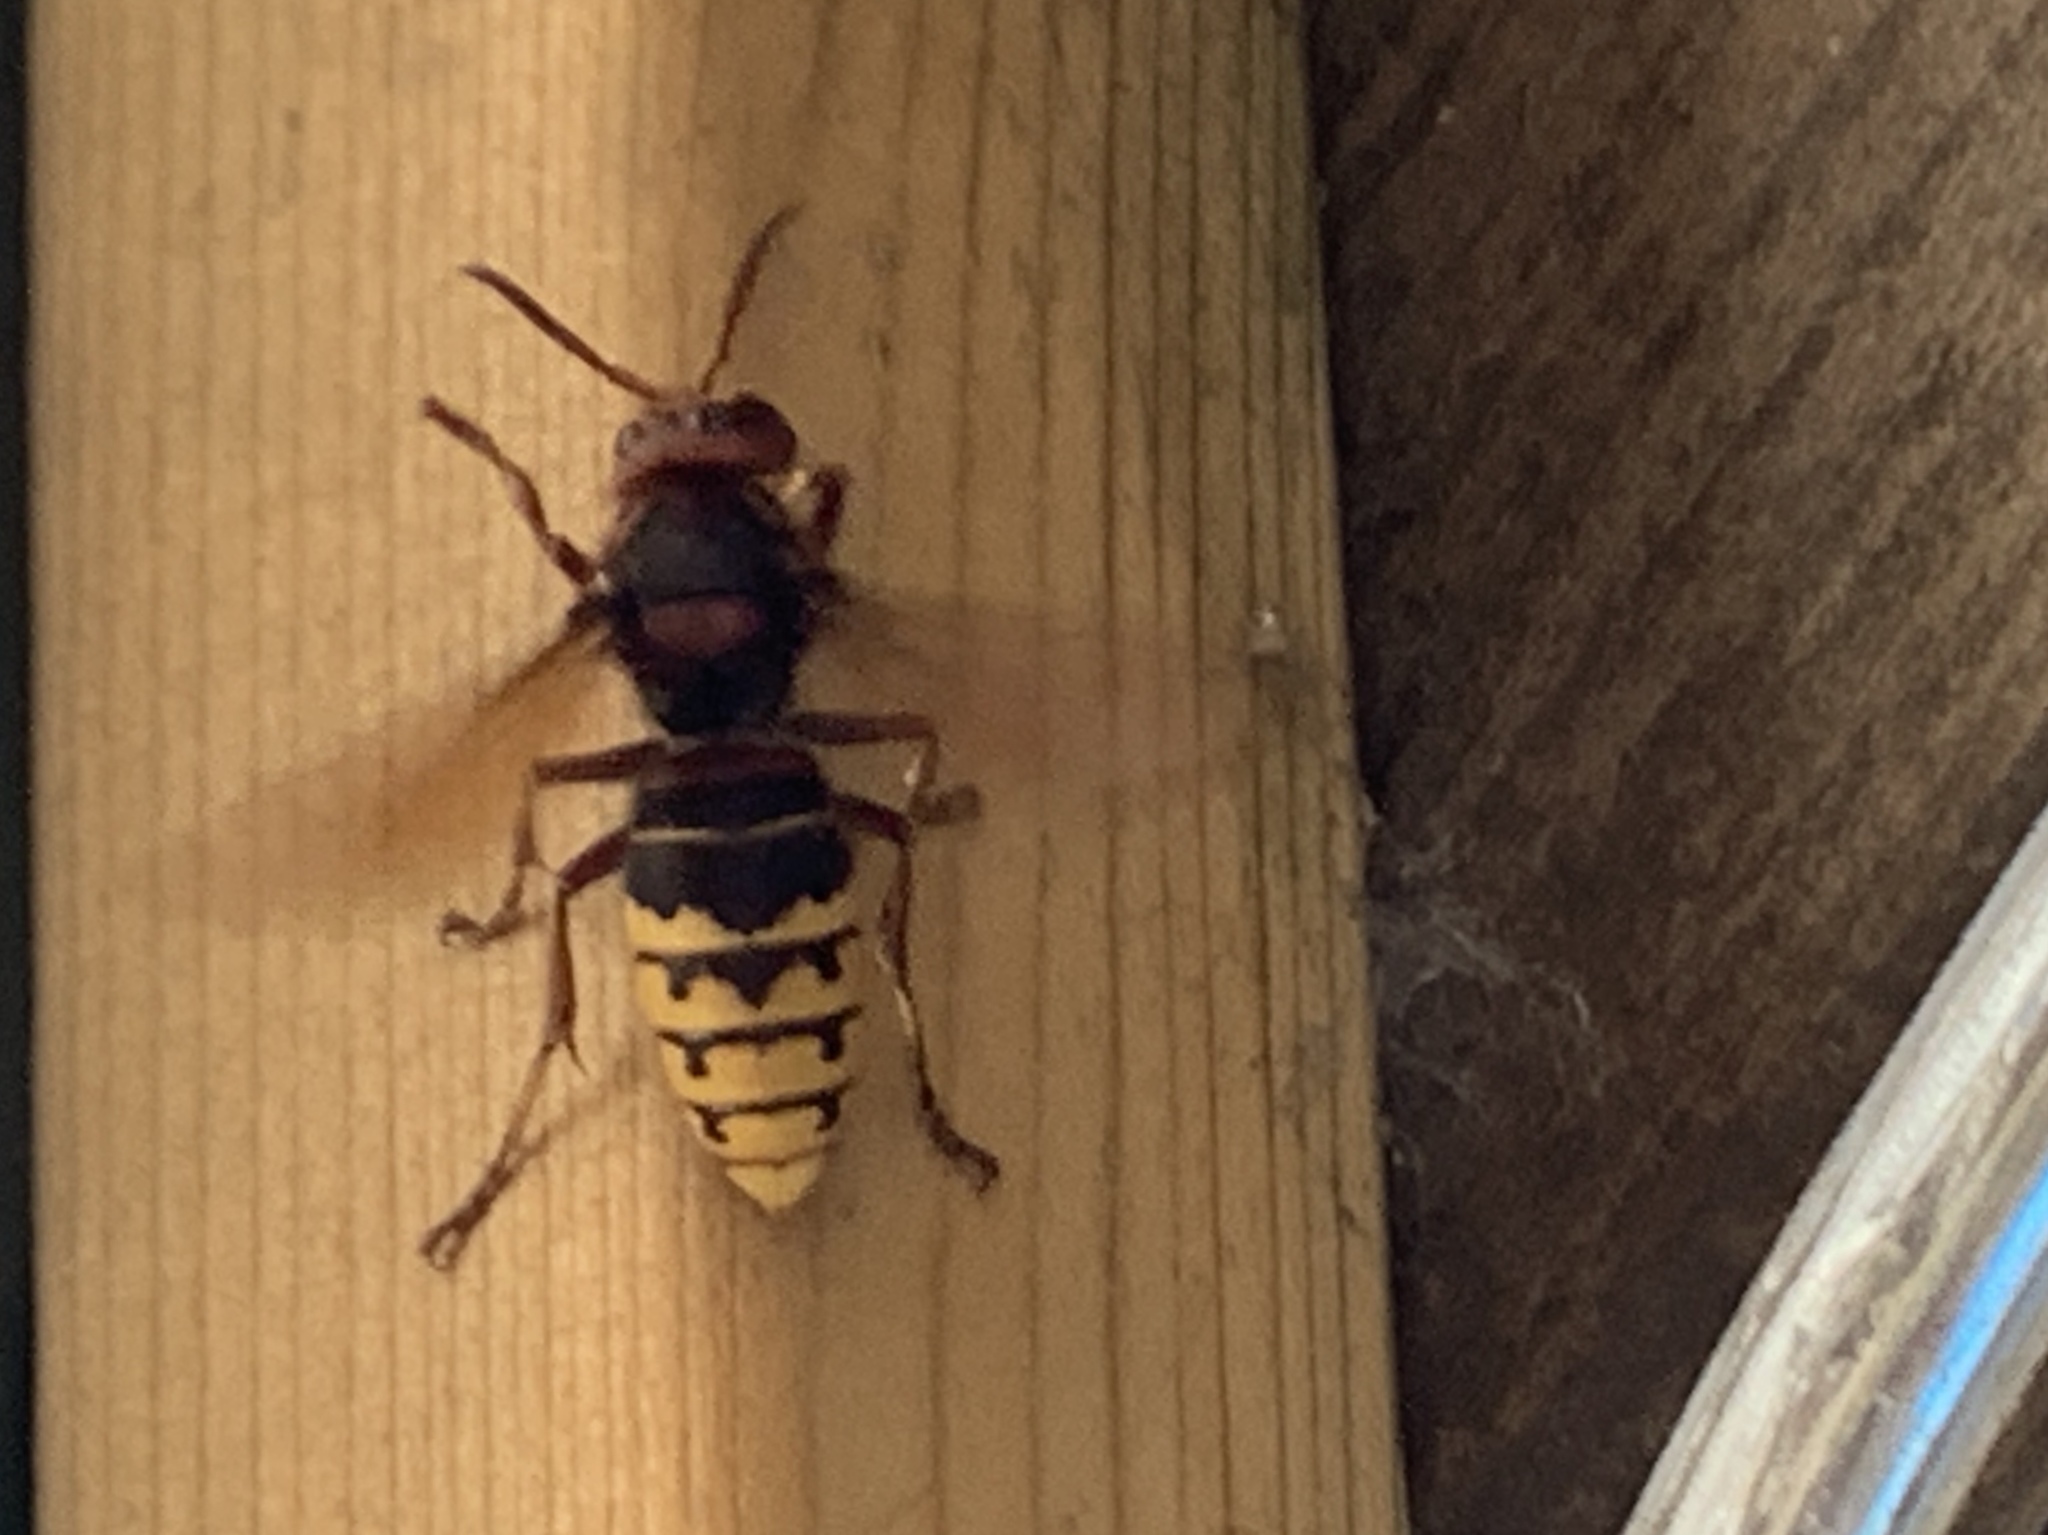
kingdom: Animalia
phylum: Arthropoda
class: Insecta
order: Hymenoptera
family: Vespidae
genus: Vespa
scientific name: Vespa crabro
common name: Hornet
